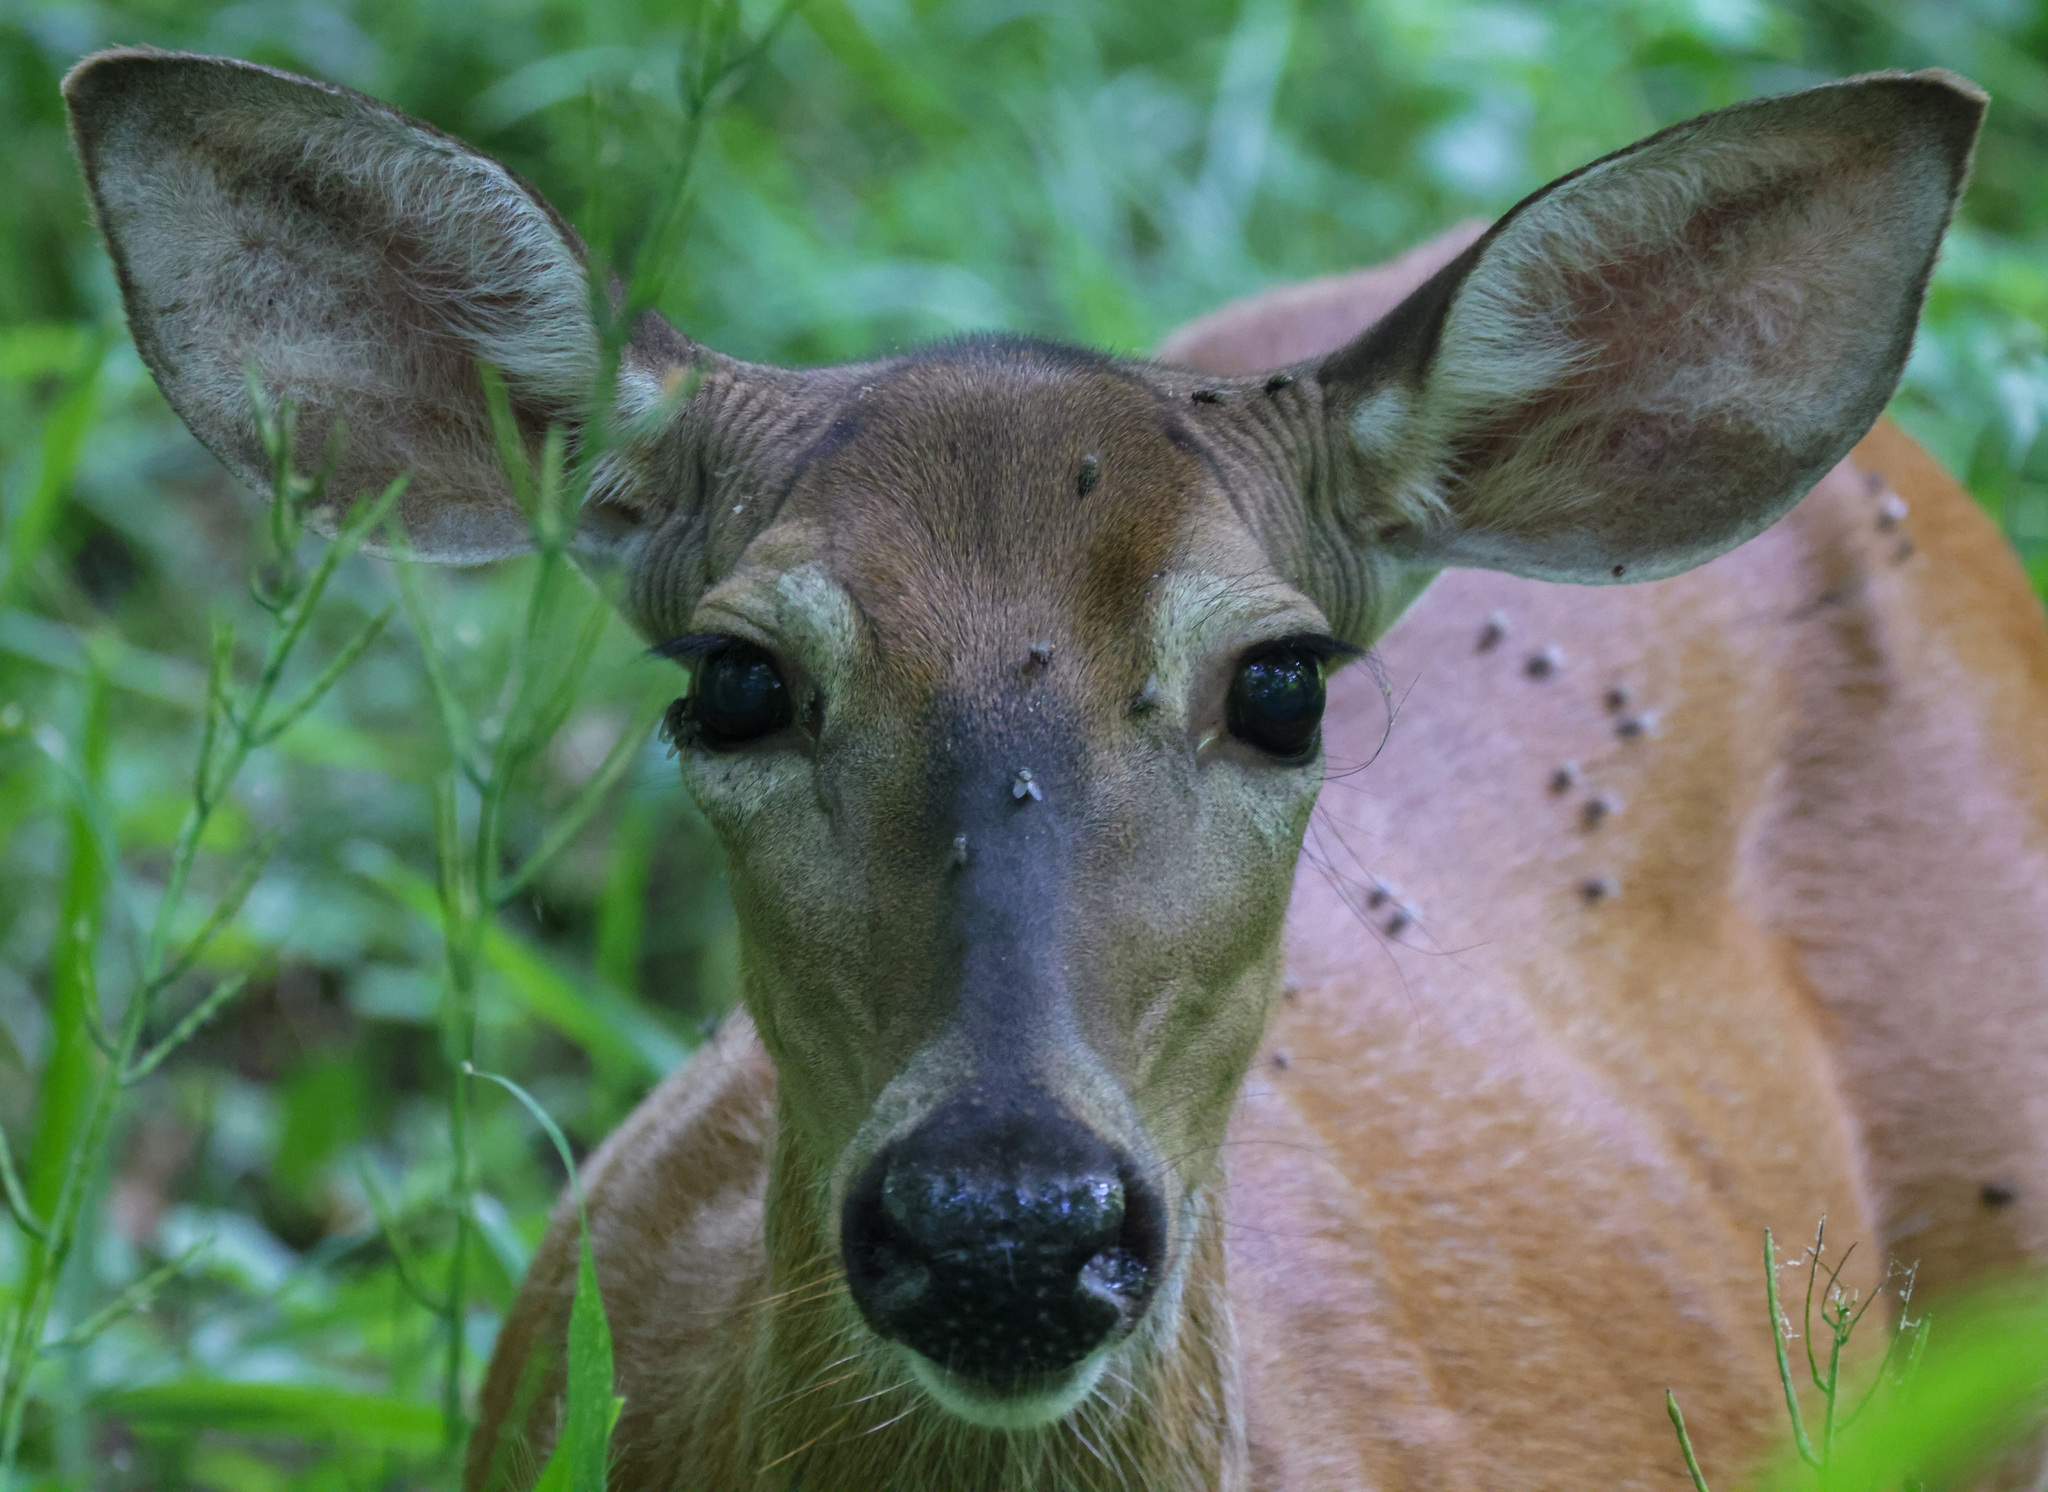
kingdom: Animalia
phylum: Chordata
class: Mammalia
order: Artiodactyla
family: Cervidae
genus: Odocoileus
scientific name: Odocoileus virginianus
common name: White-tailed deer
